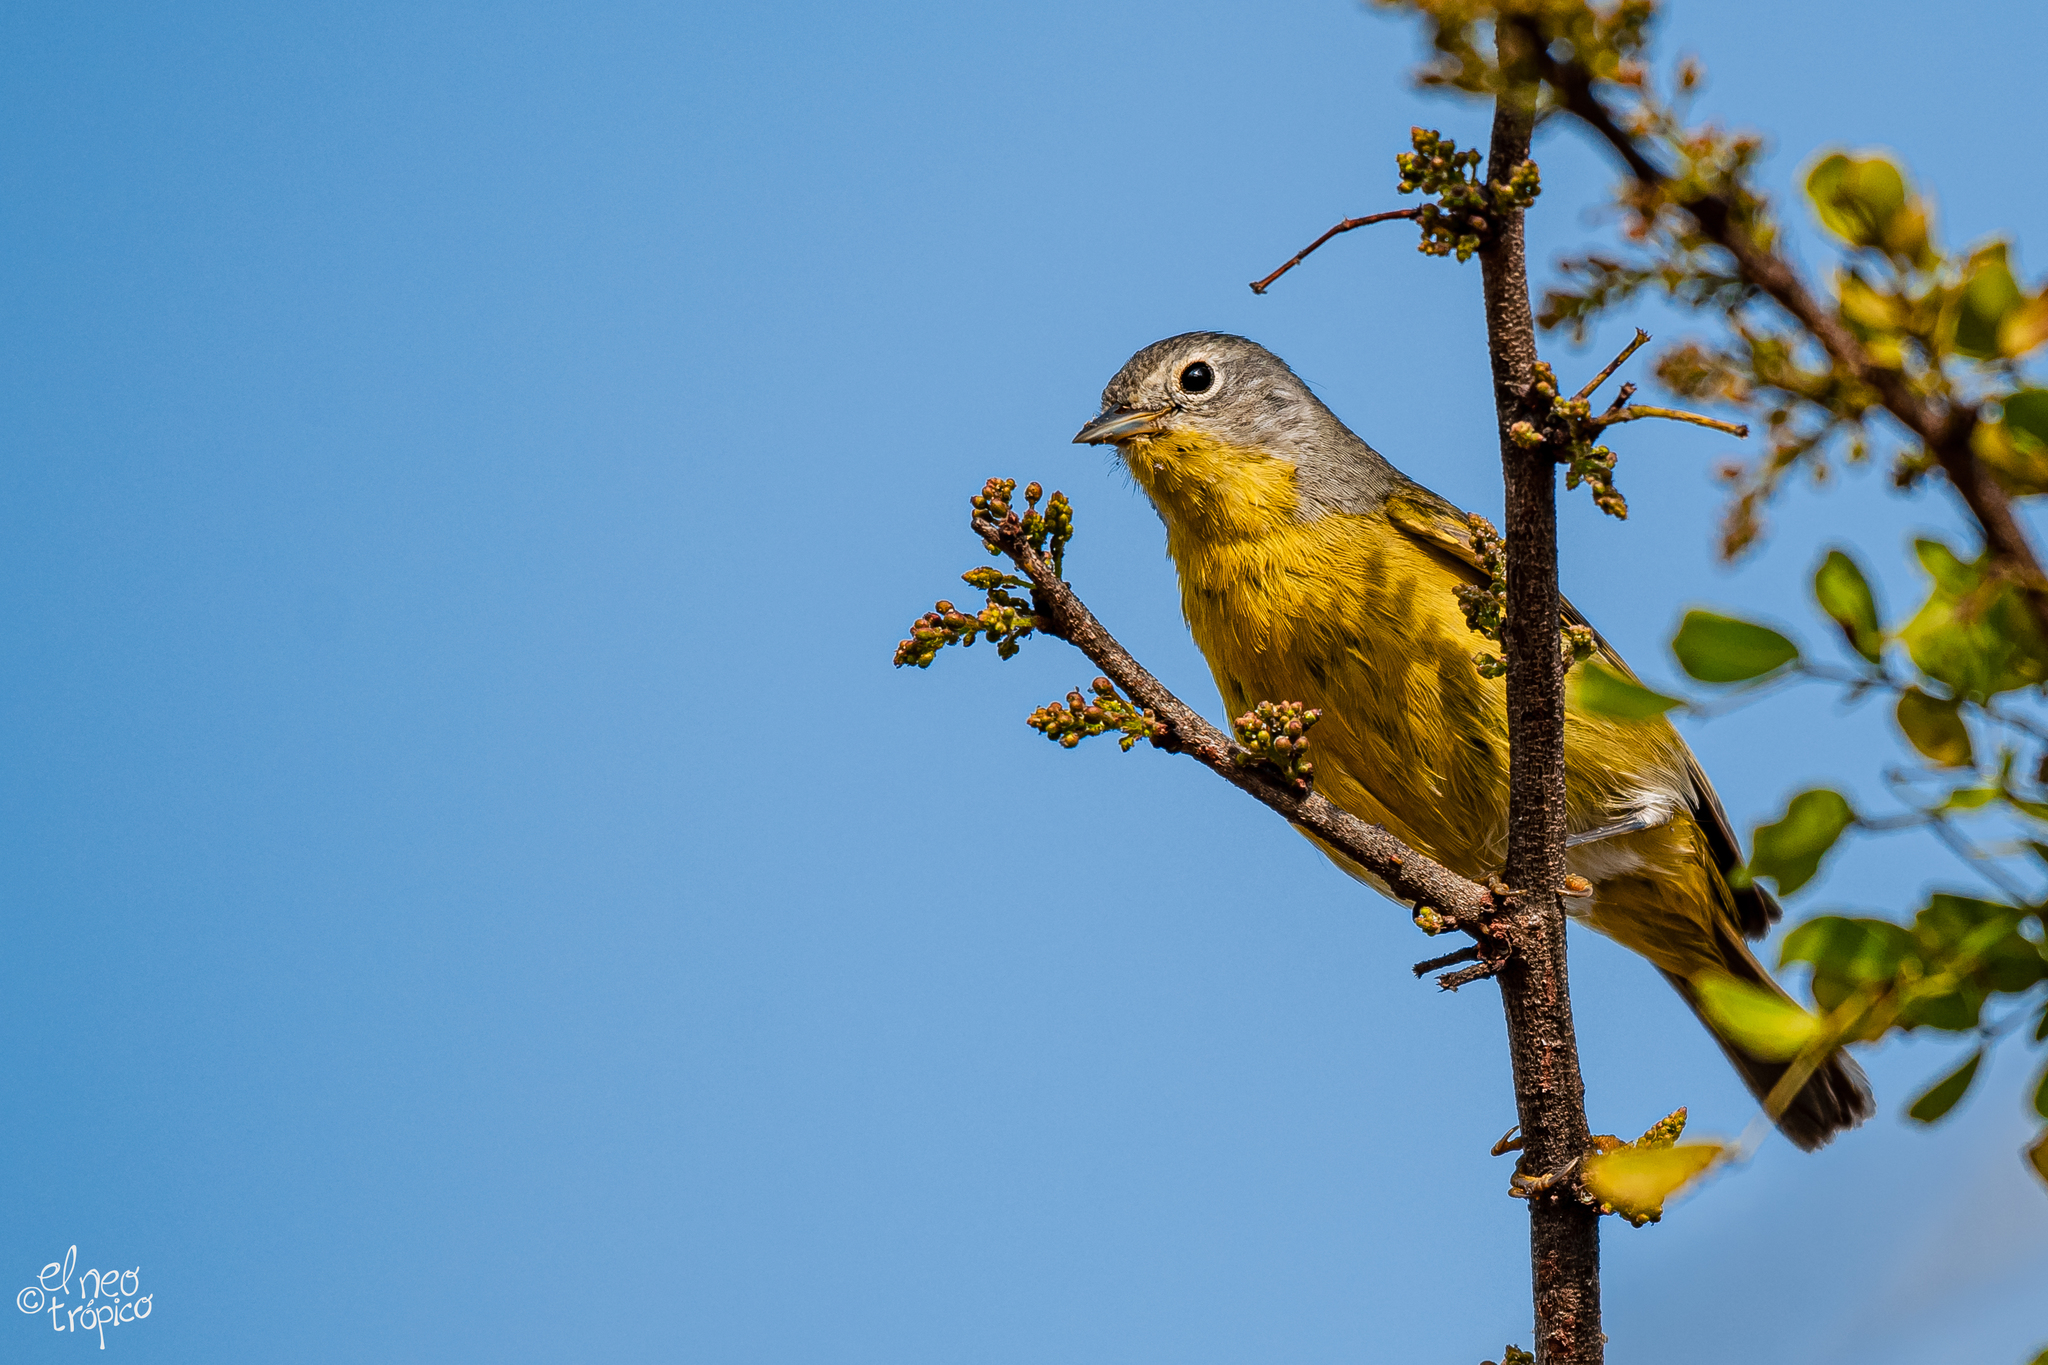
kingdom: Animalia
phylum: Chordata
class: Aves
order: Passeriformes
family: Parulidae
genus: Leiothlypis
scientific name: Leiothlypis ruficapilla
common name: Nashville warbler
